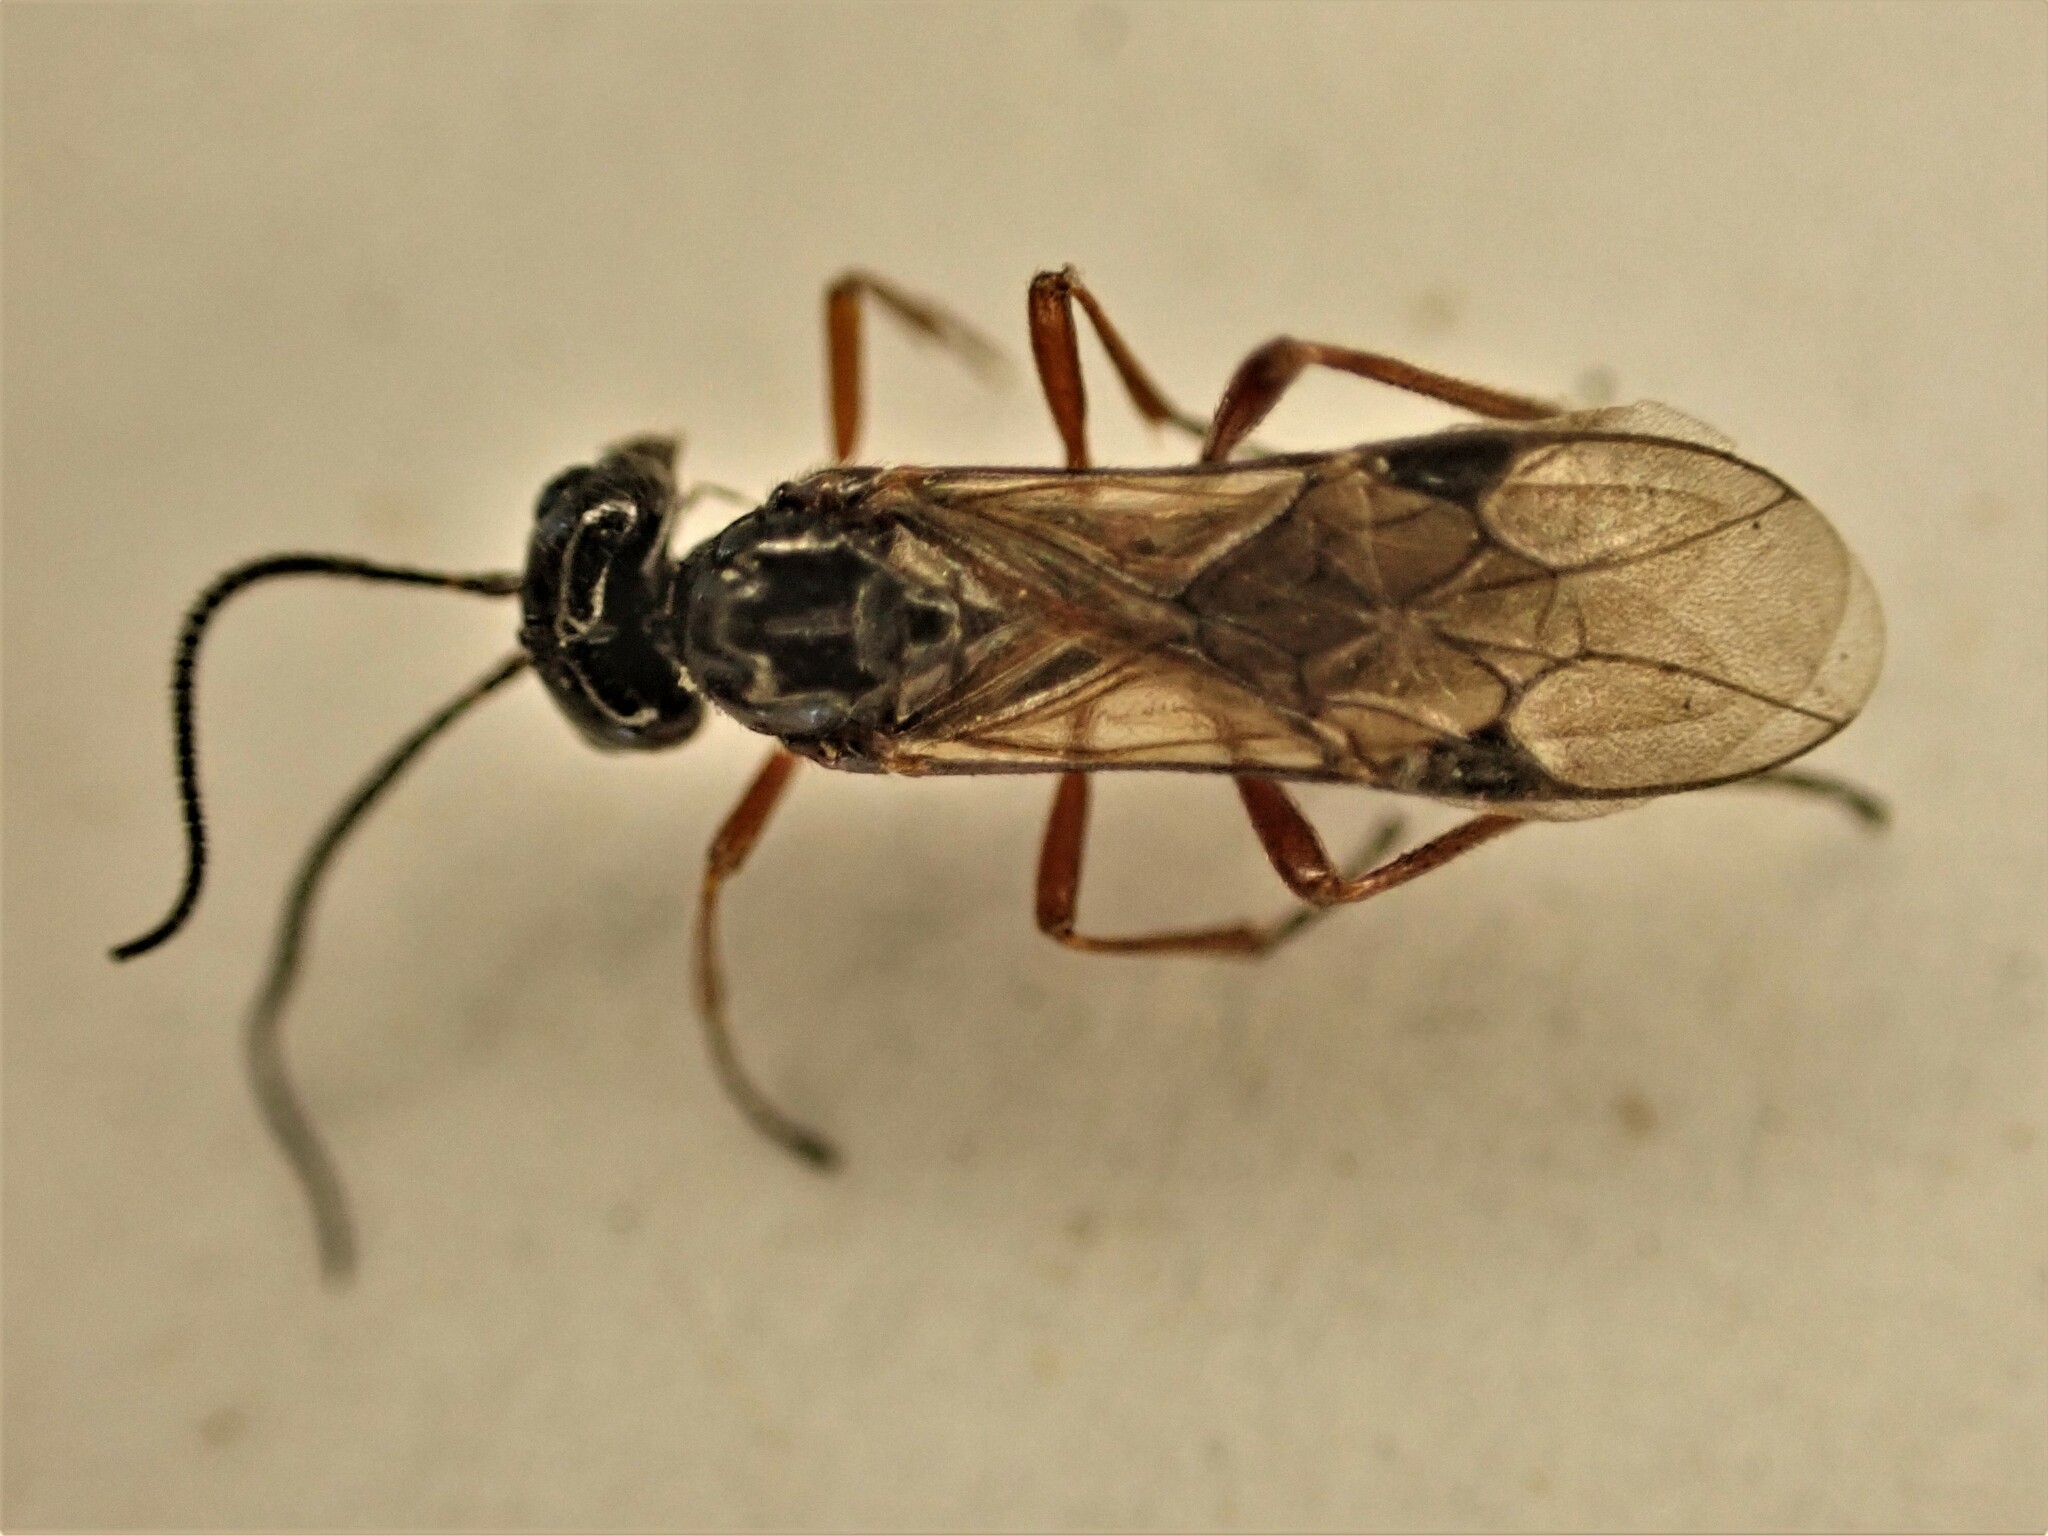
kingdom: Animalia
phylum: Arthropoda
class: Insecta
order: Hymenoptera
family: Braconidae
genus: Alysia
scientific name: Alysia manducator
